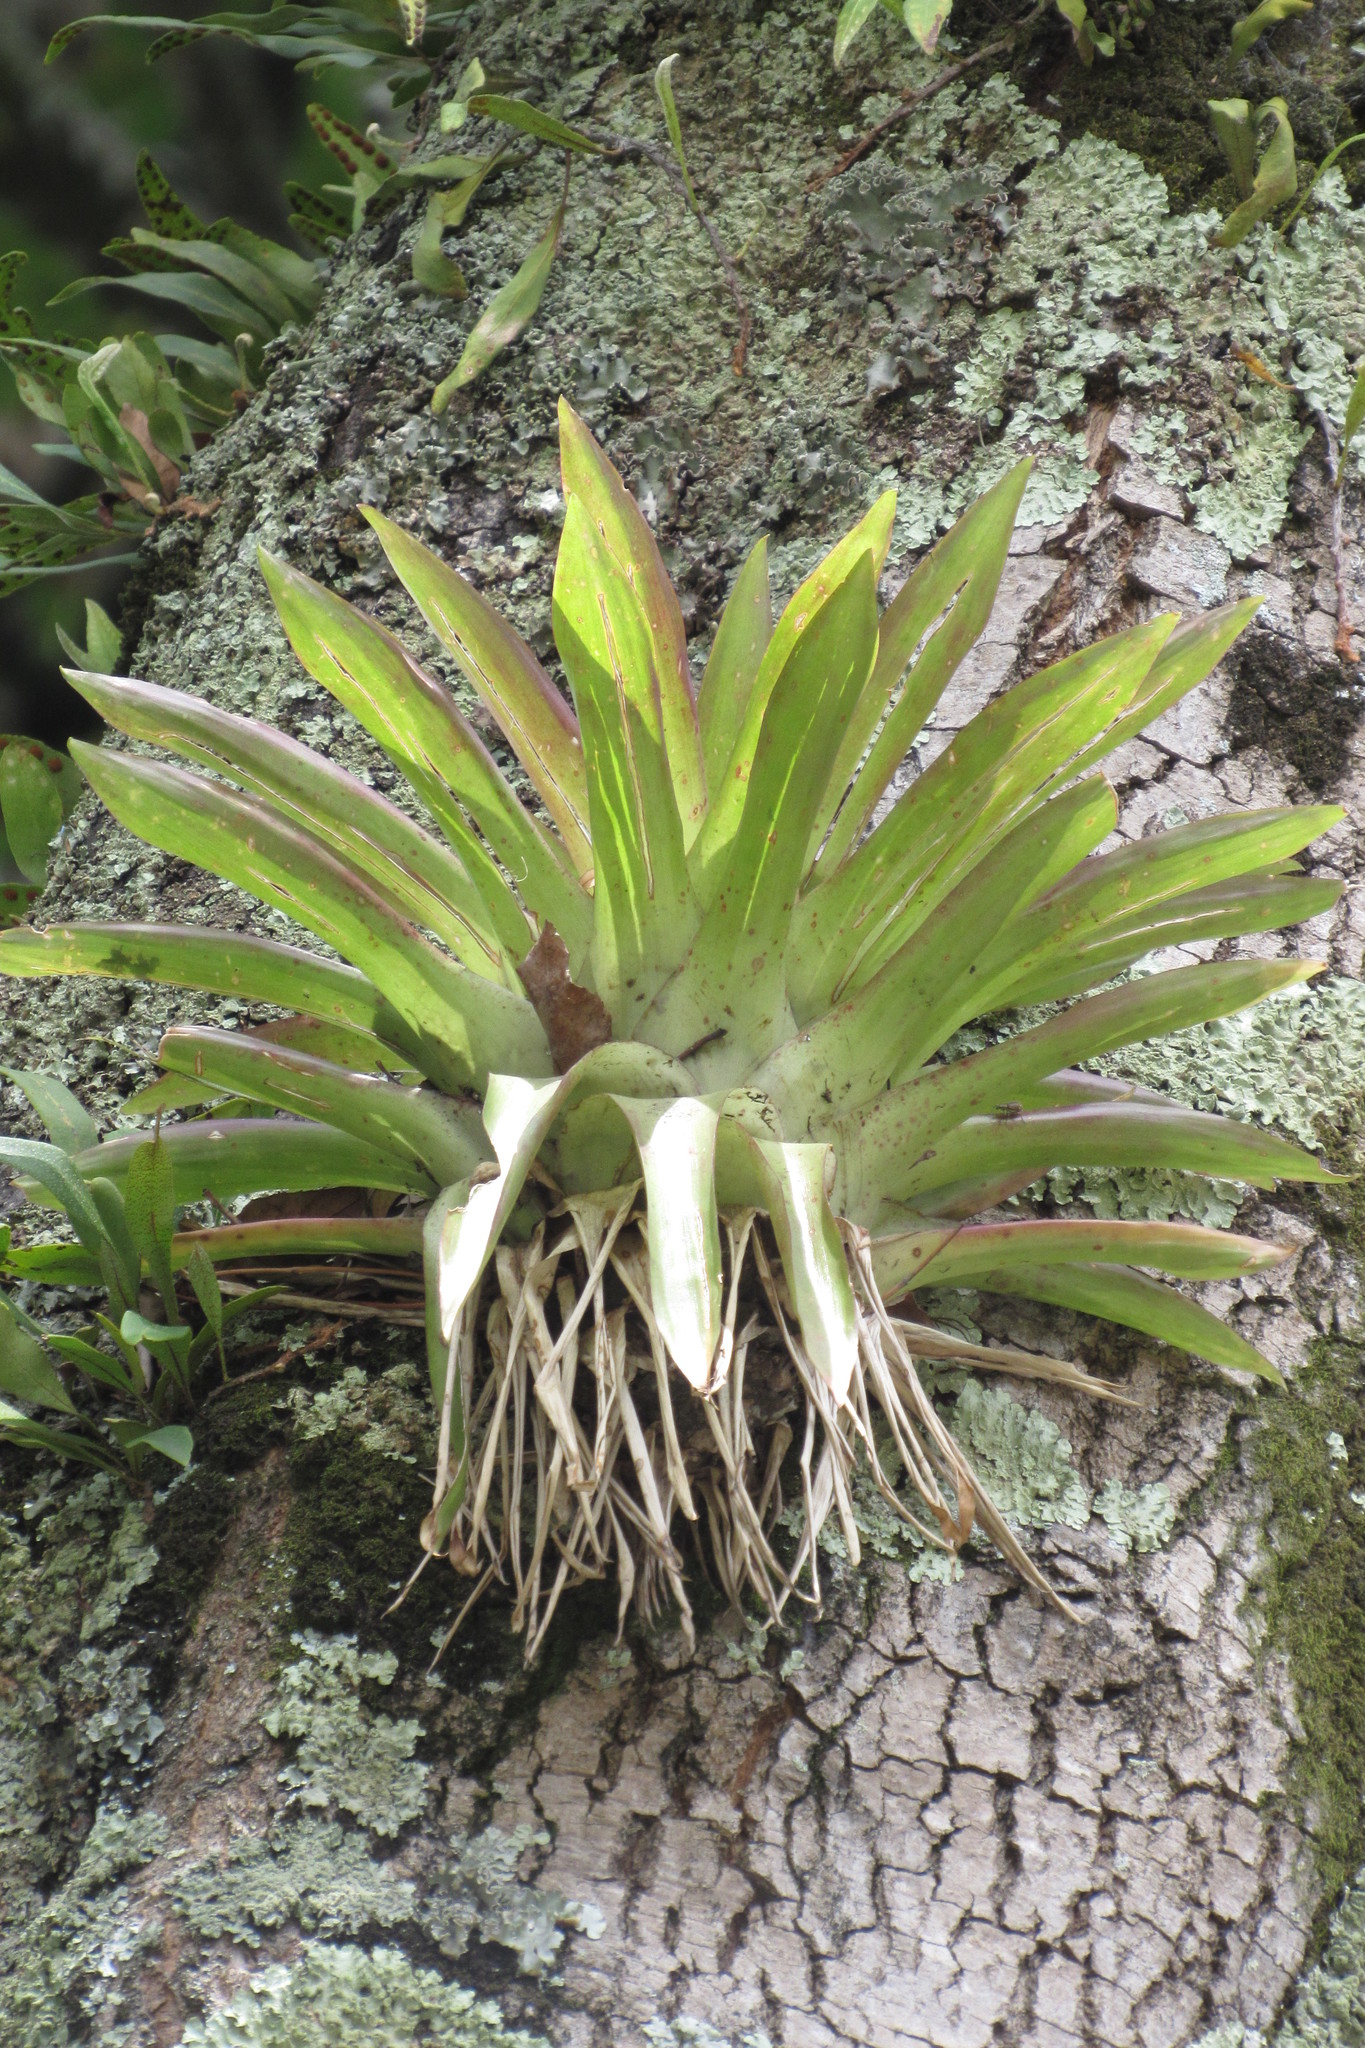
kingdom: Plantae
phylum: Tracheophyta
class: Liliopsida
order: Poales
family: Bromeliaceae
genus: Tillandsia
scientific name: Tillandsia biflora
